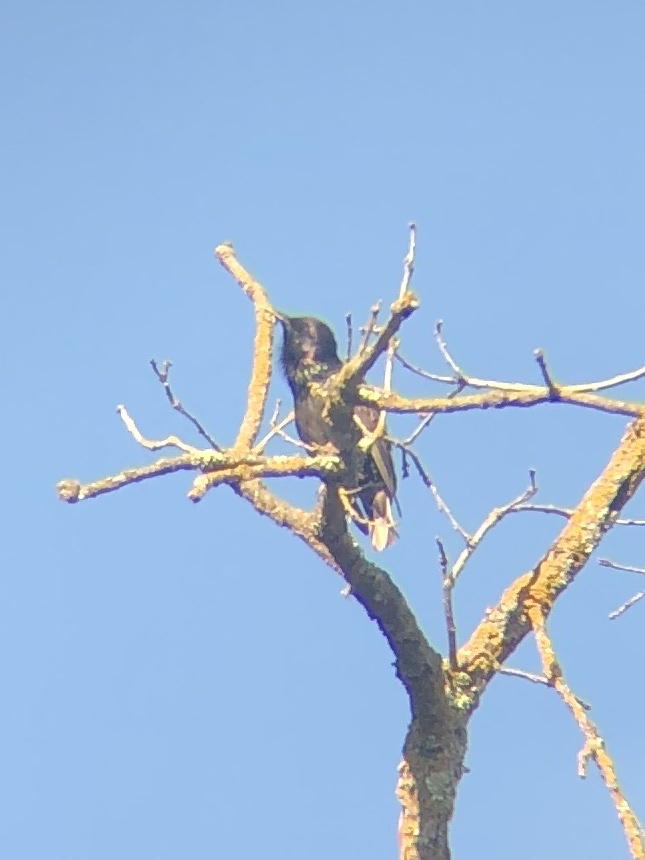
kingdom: Animalia
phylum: Chordata
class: Aves
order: Passeriformes
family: Sturnidae
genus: Sturnus
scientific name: Sturnus vulgaris
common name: Common starling
